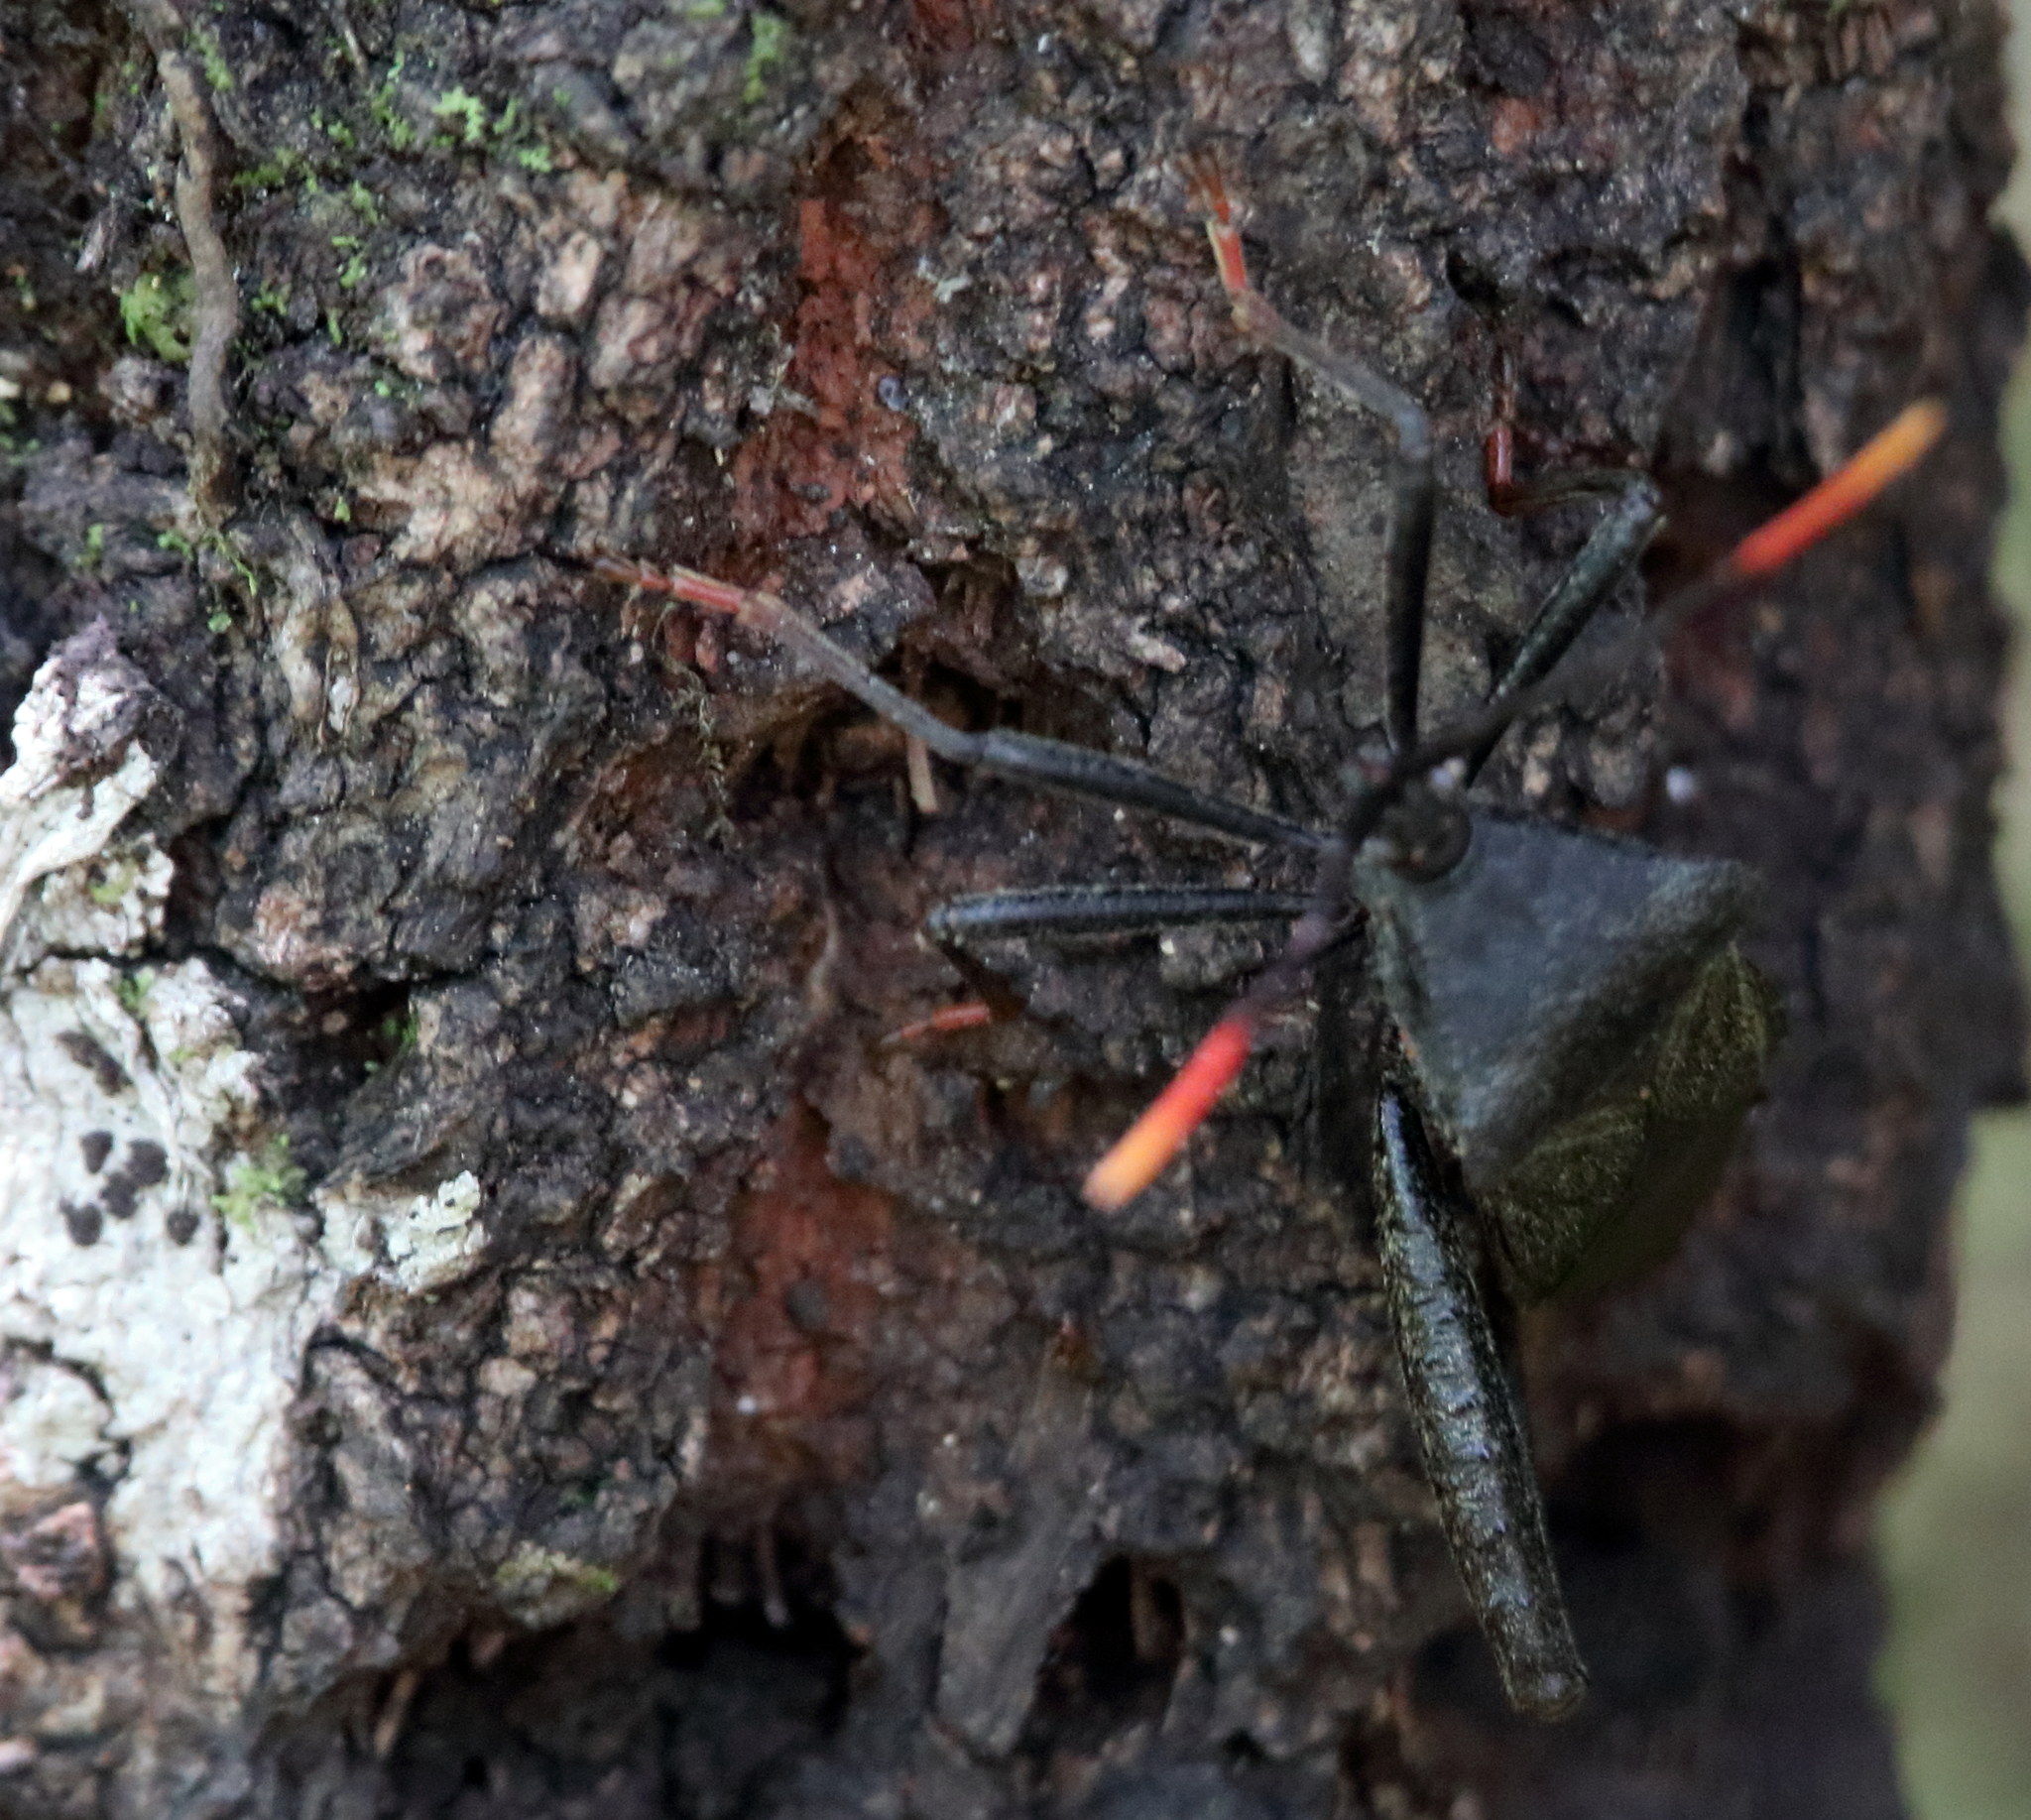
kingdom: Animalia
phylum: Arthropoda
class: Insecta
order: Hemiptera
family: Coreidae
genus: Acanthocephala
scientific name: Acanthocephala terminalis
